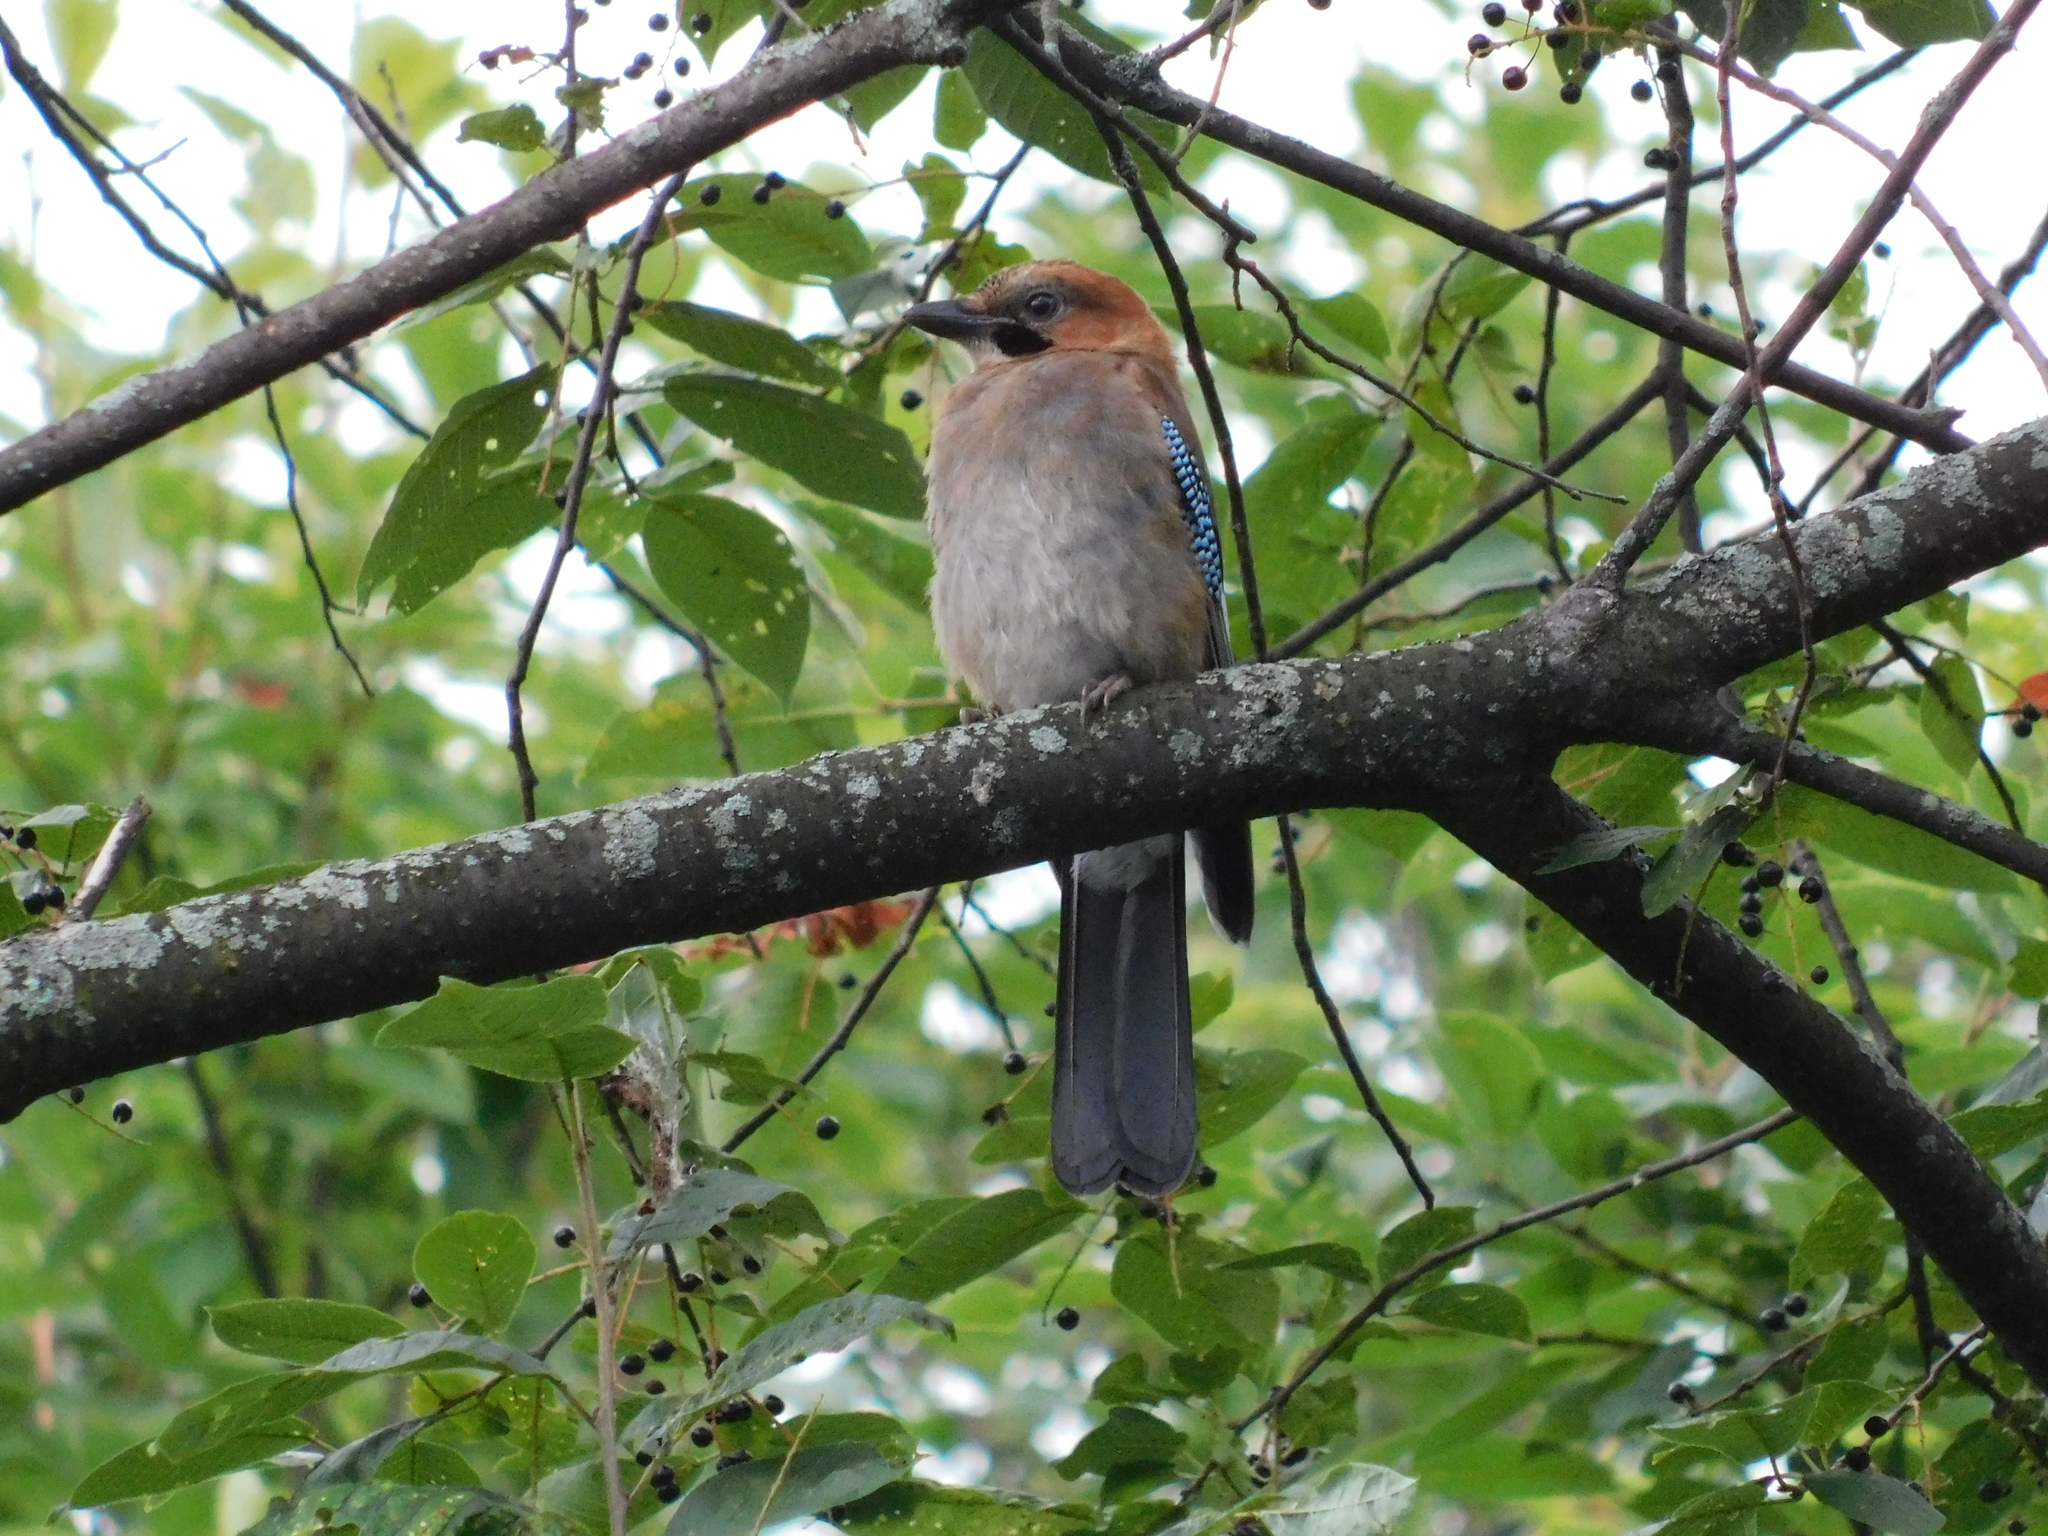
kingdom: Animalia
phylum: Chordata
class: Aves
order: Passeriformes
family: Corvidae
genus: Garrulus
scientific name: Garrulus glandarius
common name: Eurasian jay
